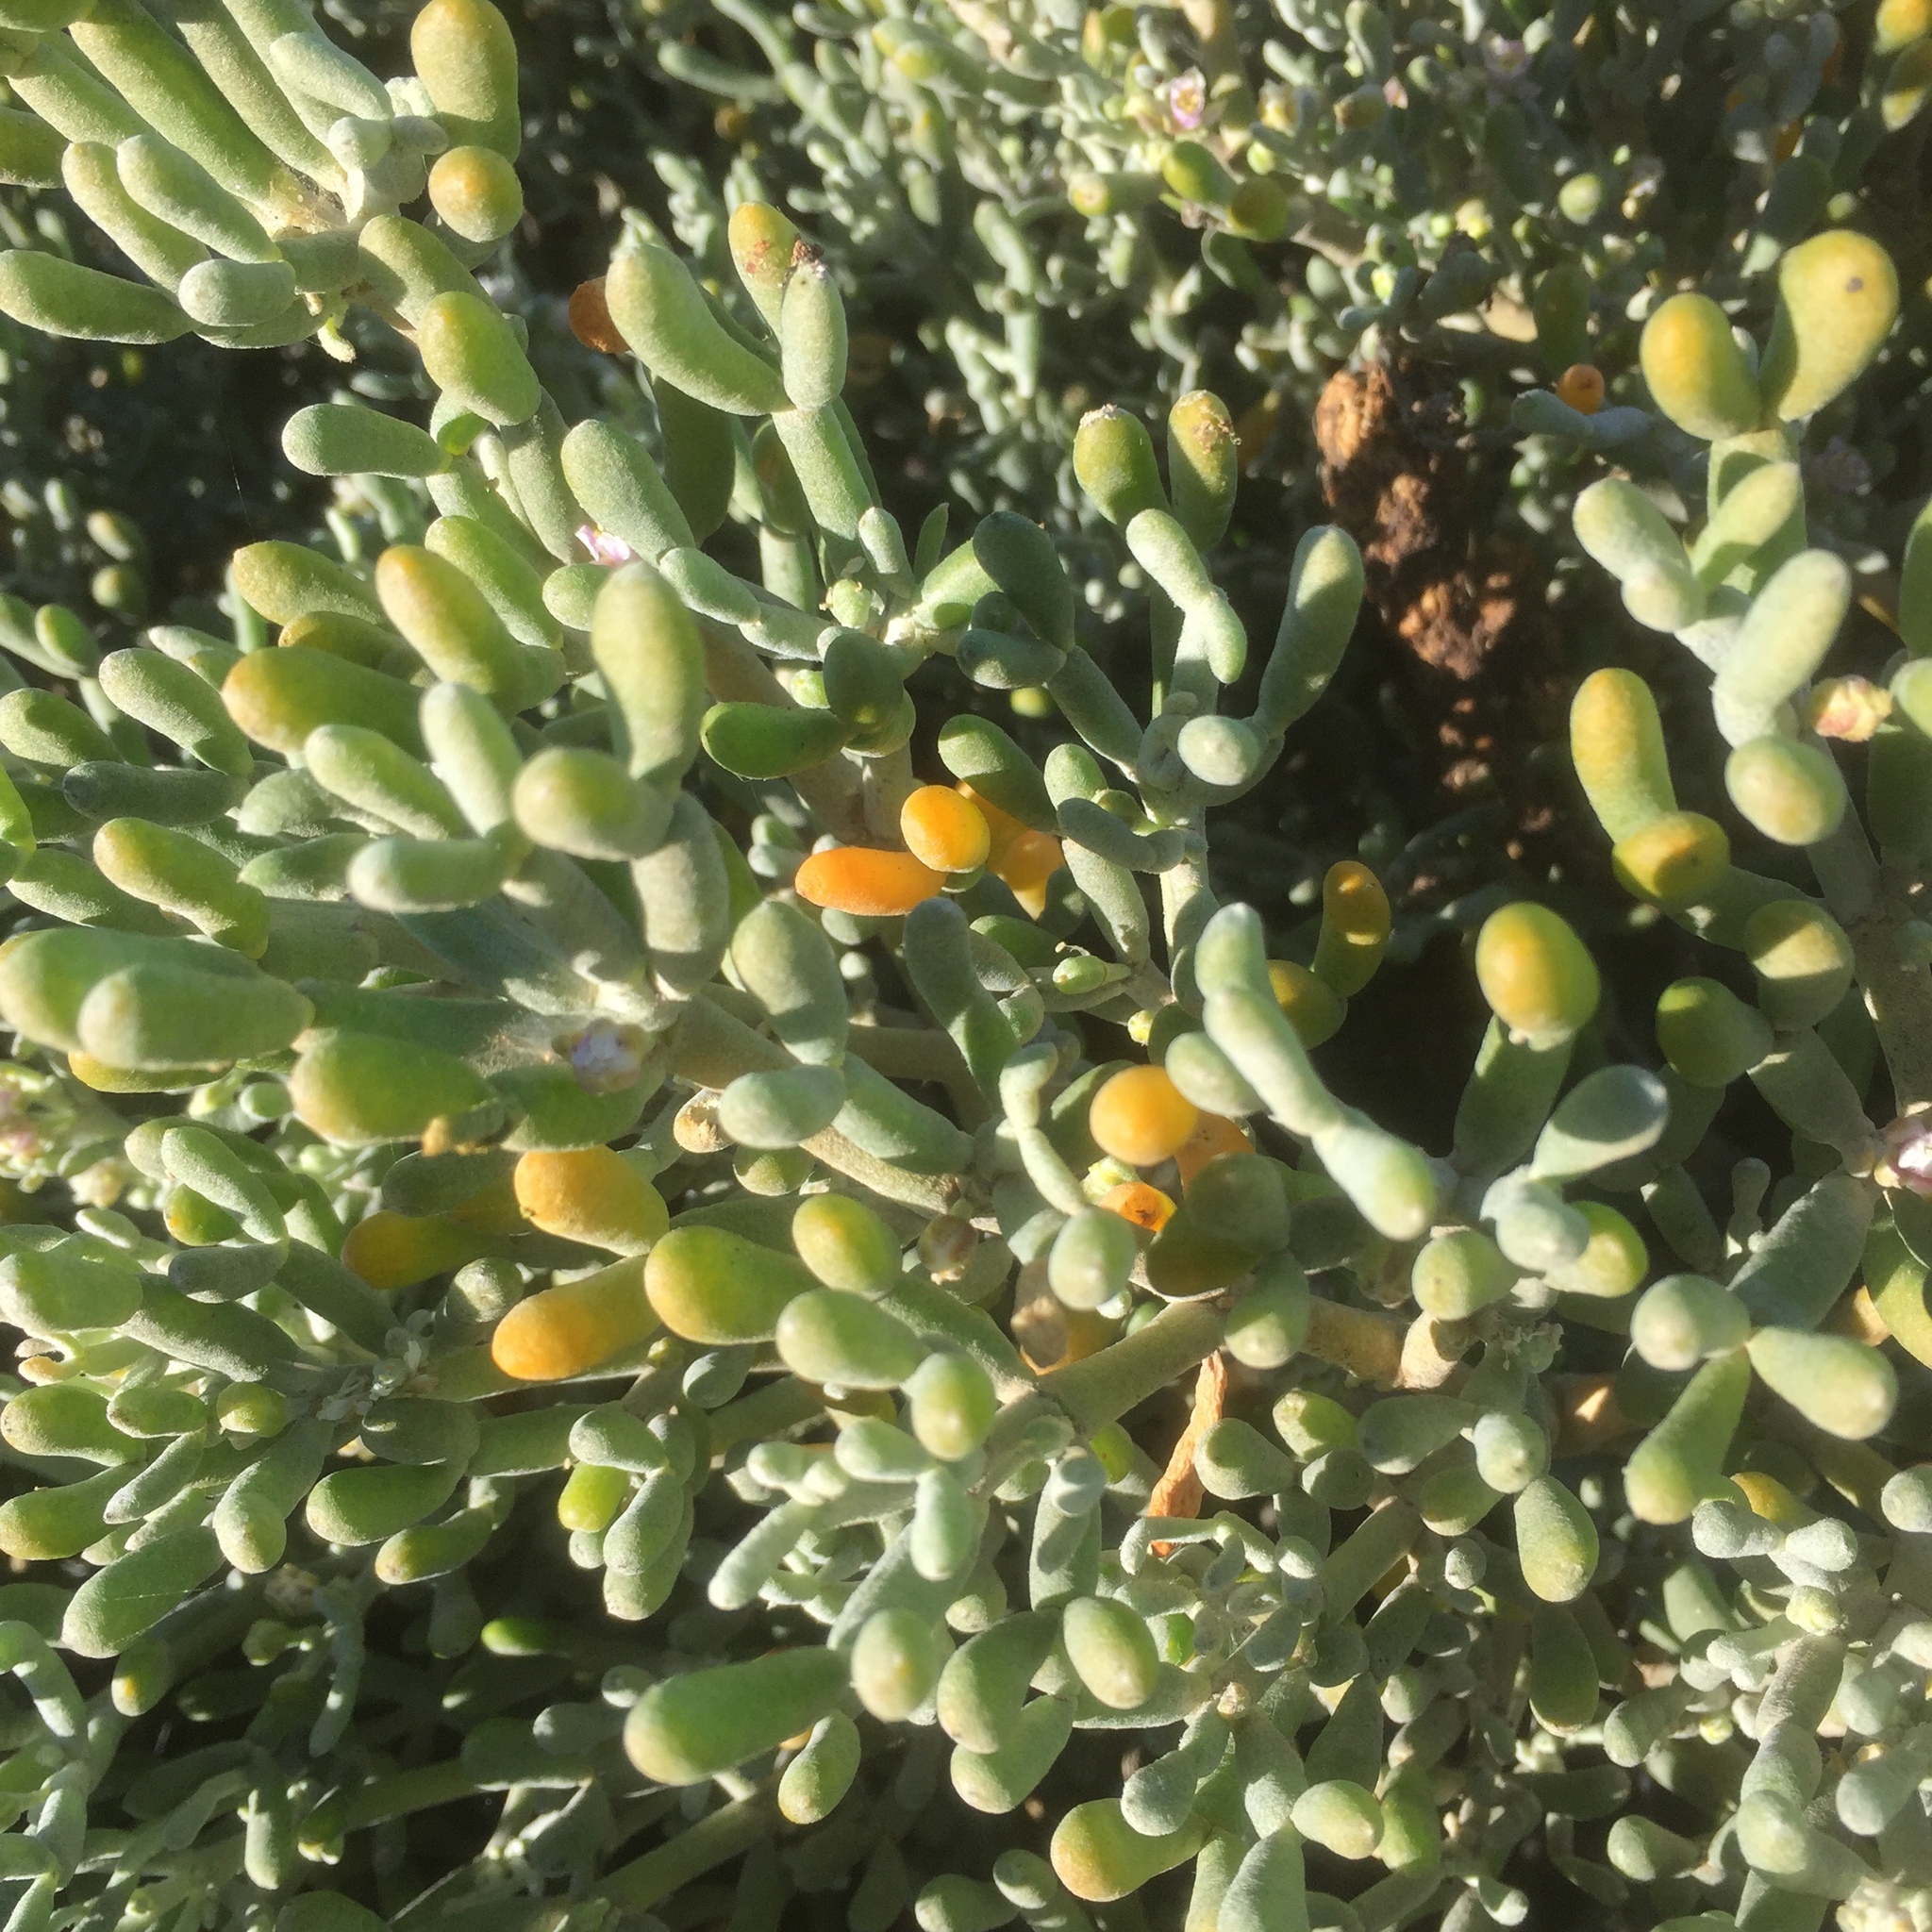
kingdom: Plantae
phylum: Tracheophyta
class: Magnoliopsida
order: Zygophyllales
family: Zygophyllaceae
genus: Tetraena
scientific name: Tetraena fontanesii
